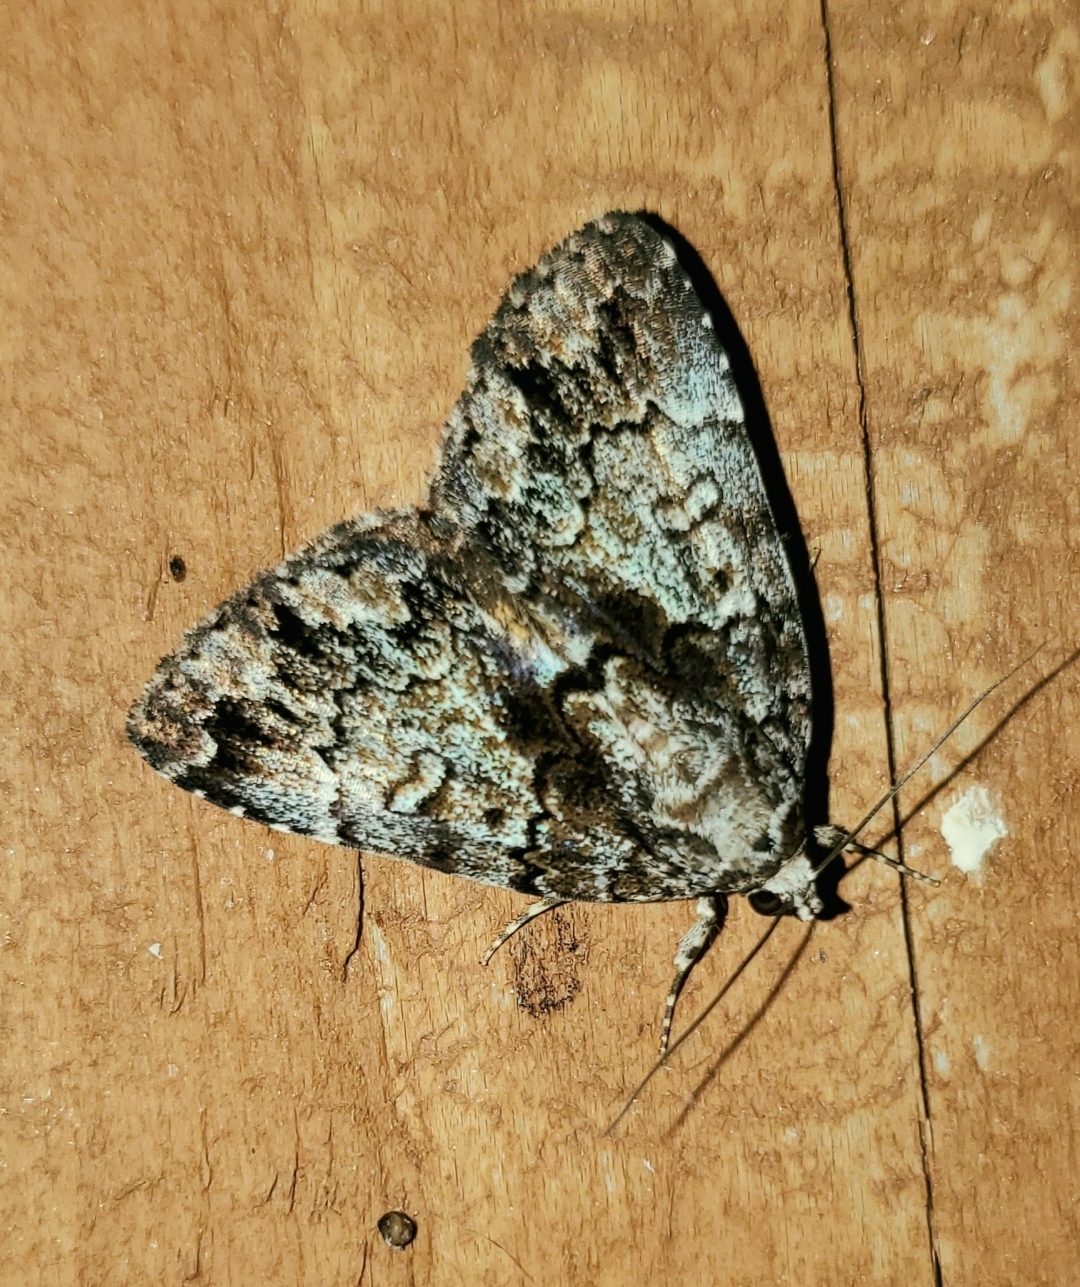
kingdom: Animalia
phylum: Arthropoda
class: Insecta
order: Lepidoptera
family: Erebidae
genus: Allotria
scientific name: Allotria elonympha
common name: False underwing
